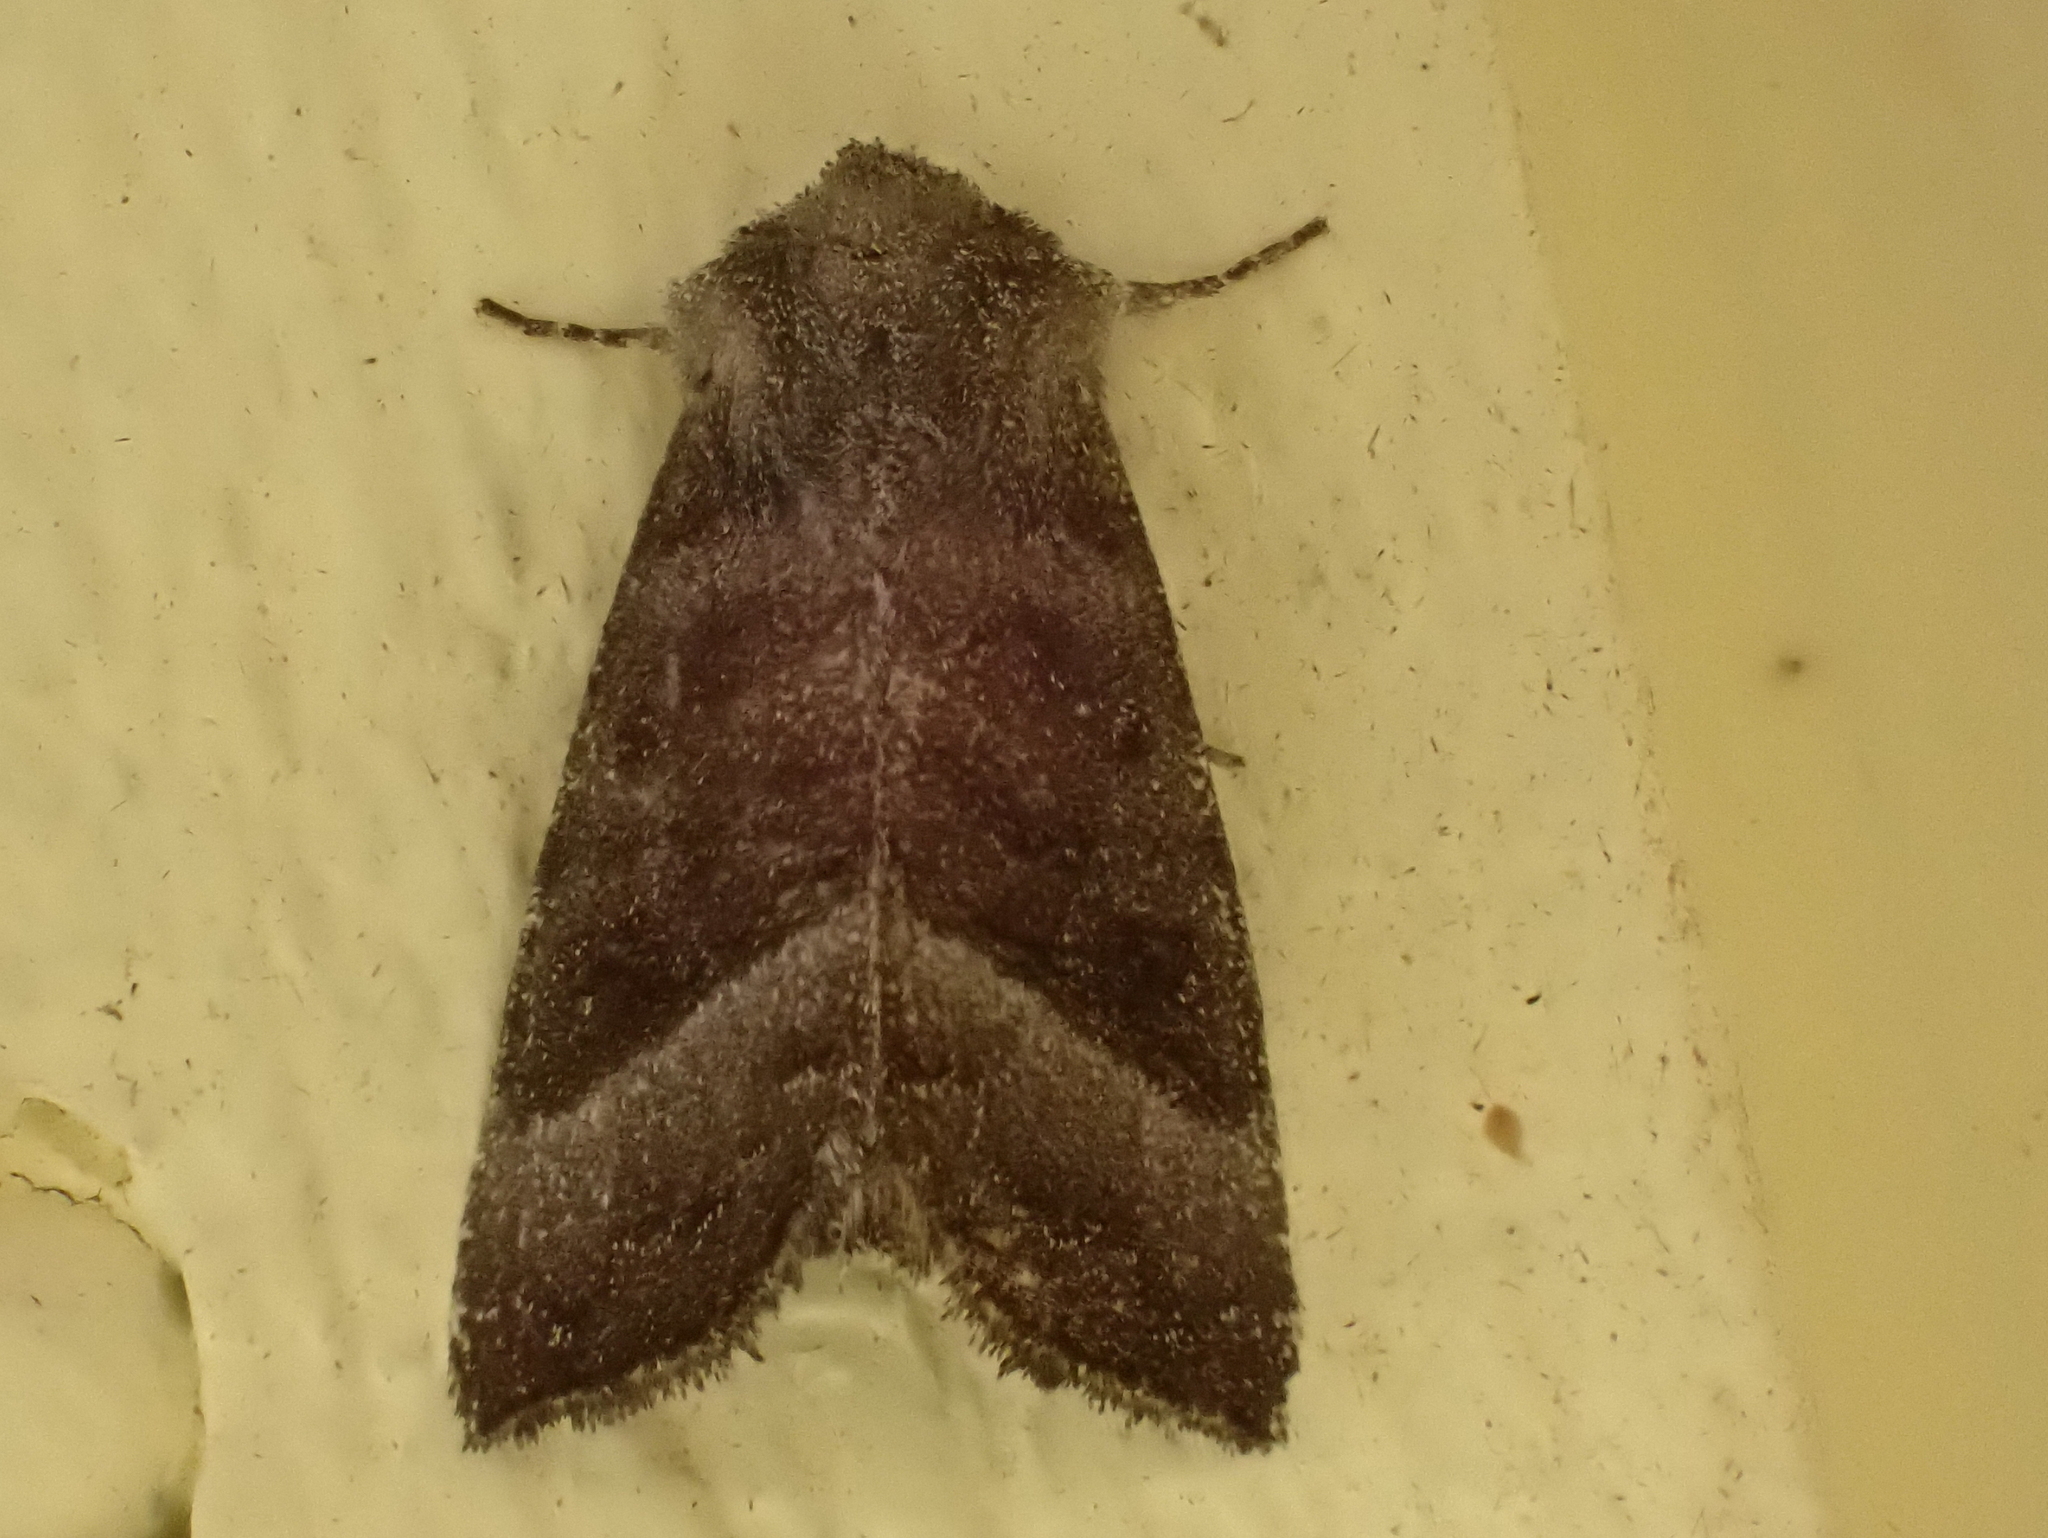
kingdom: Animalia
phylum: Arthropoda
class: Insecta
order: Lepidoptera
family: Noctuidae
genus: Papaipema
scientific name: Papaipema eupatorii
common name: Eupatorium borer moth
